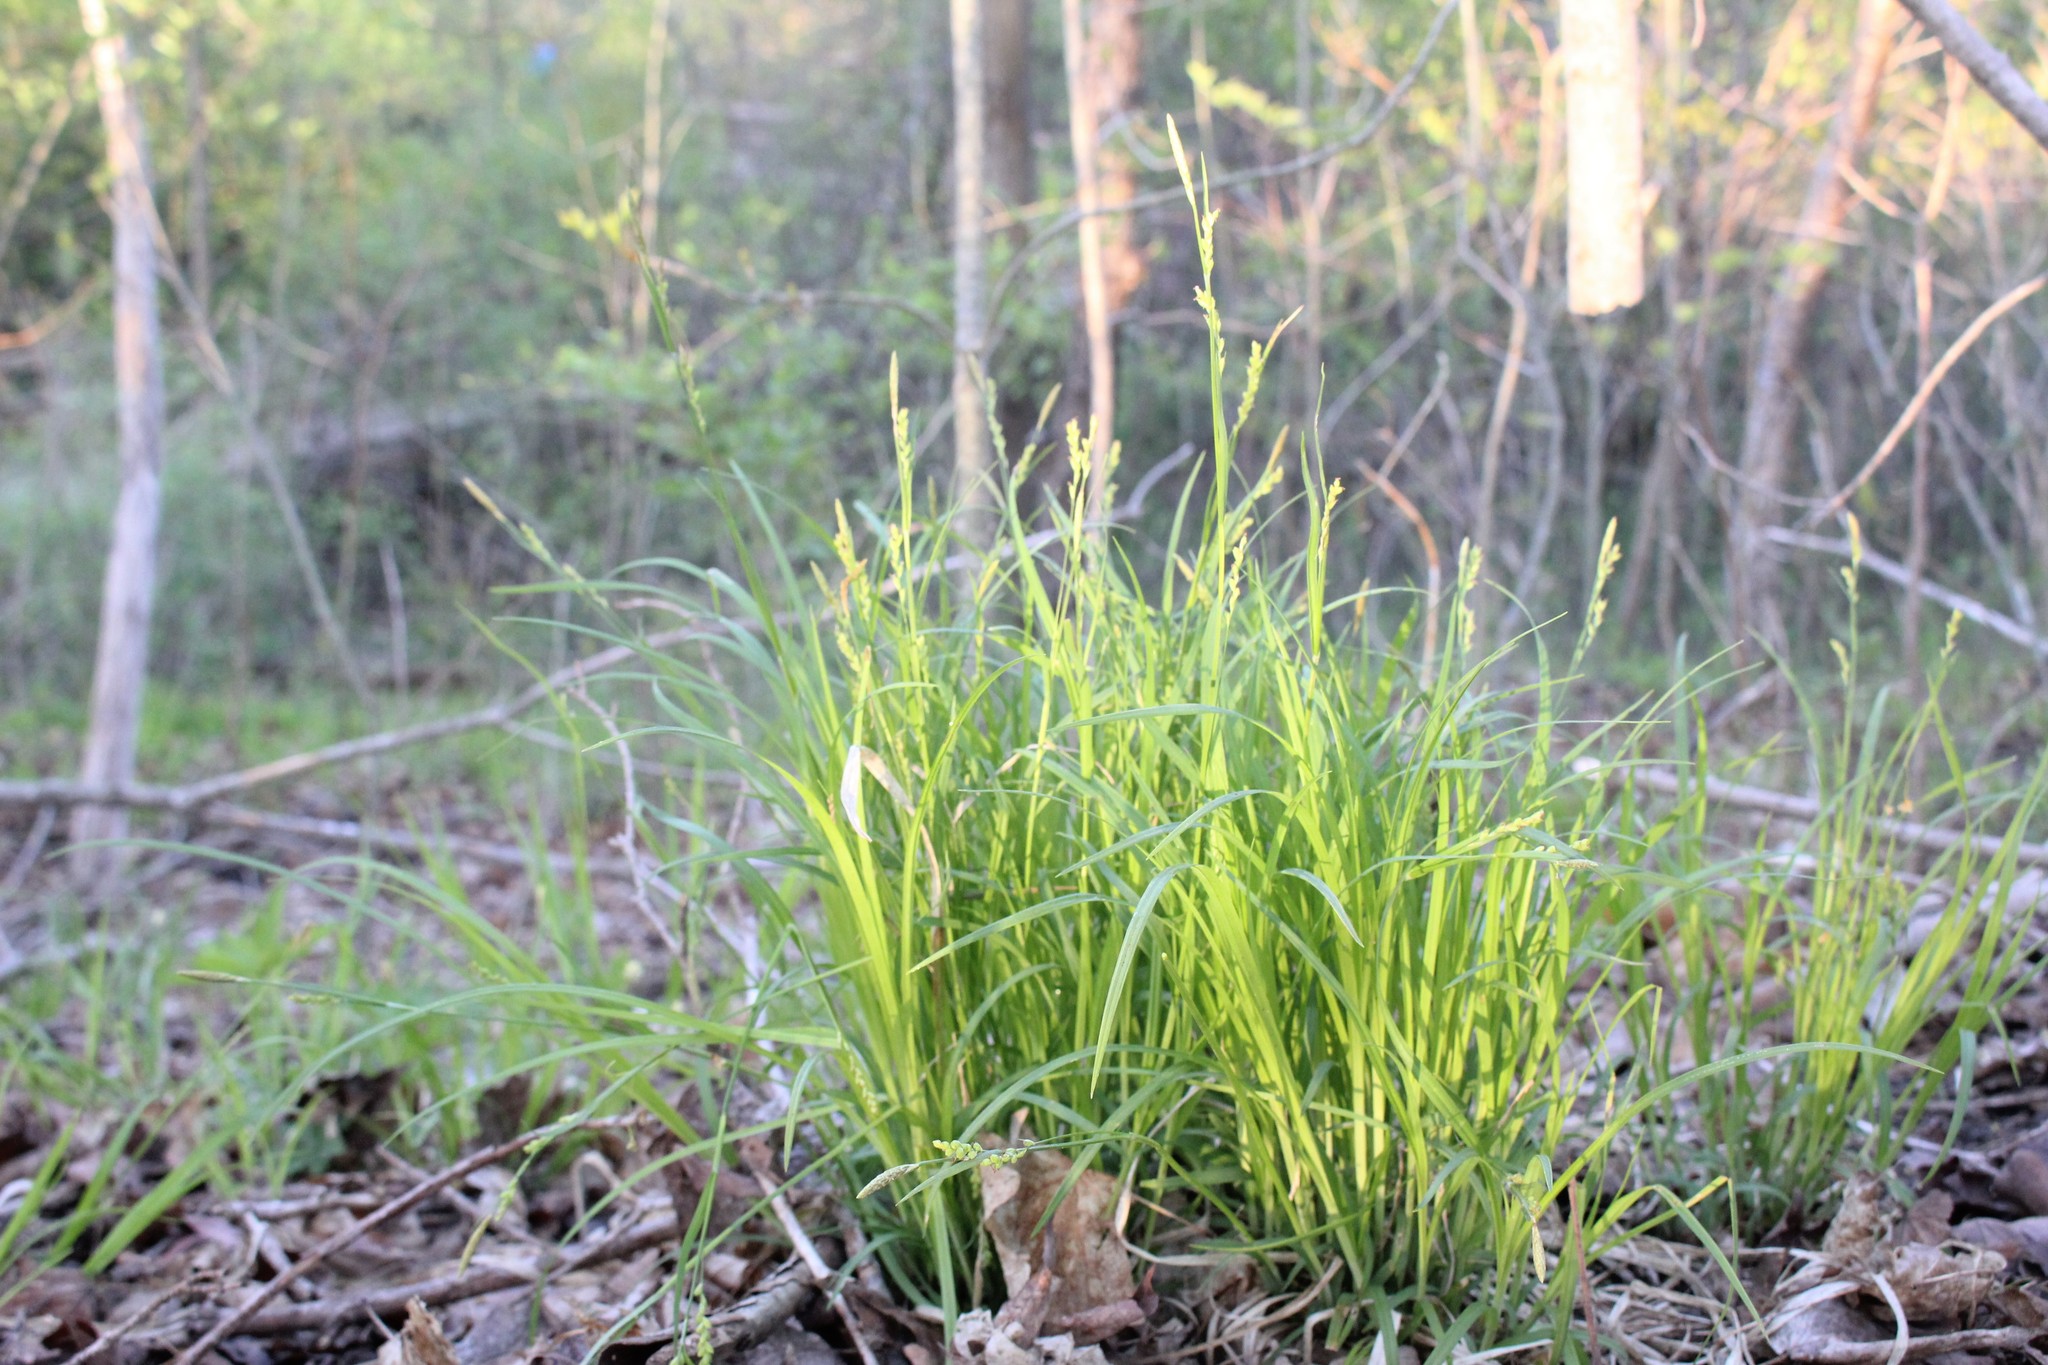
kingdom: Plantae
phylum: Tracheophyta
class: Liliopsida
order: Poales
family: Cyperaceae
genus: Carex
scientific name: Carex woodii
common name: Wood's sedge
